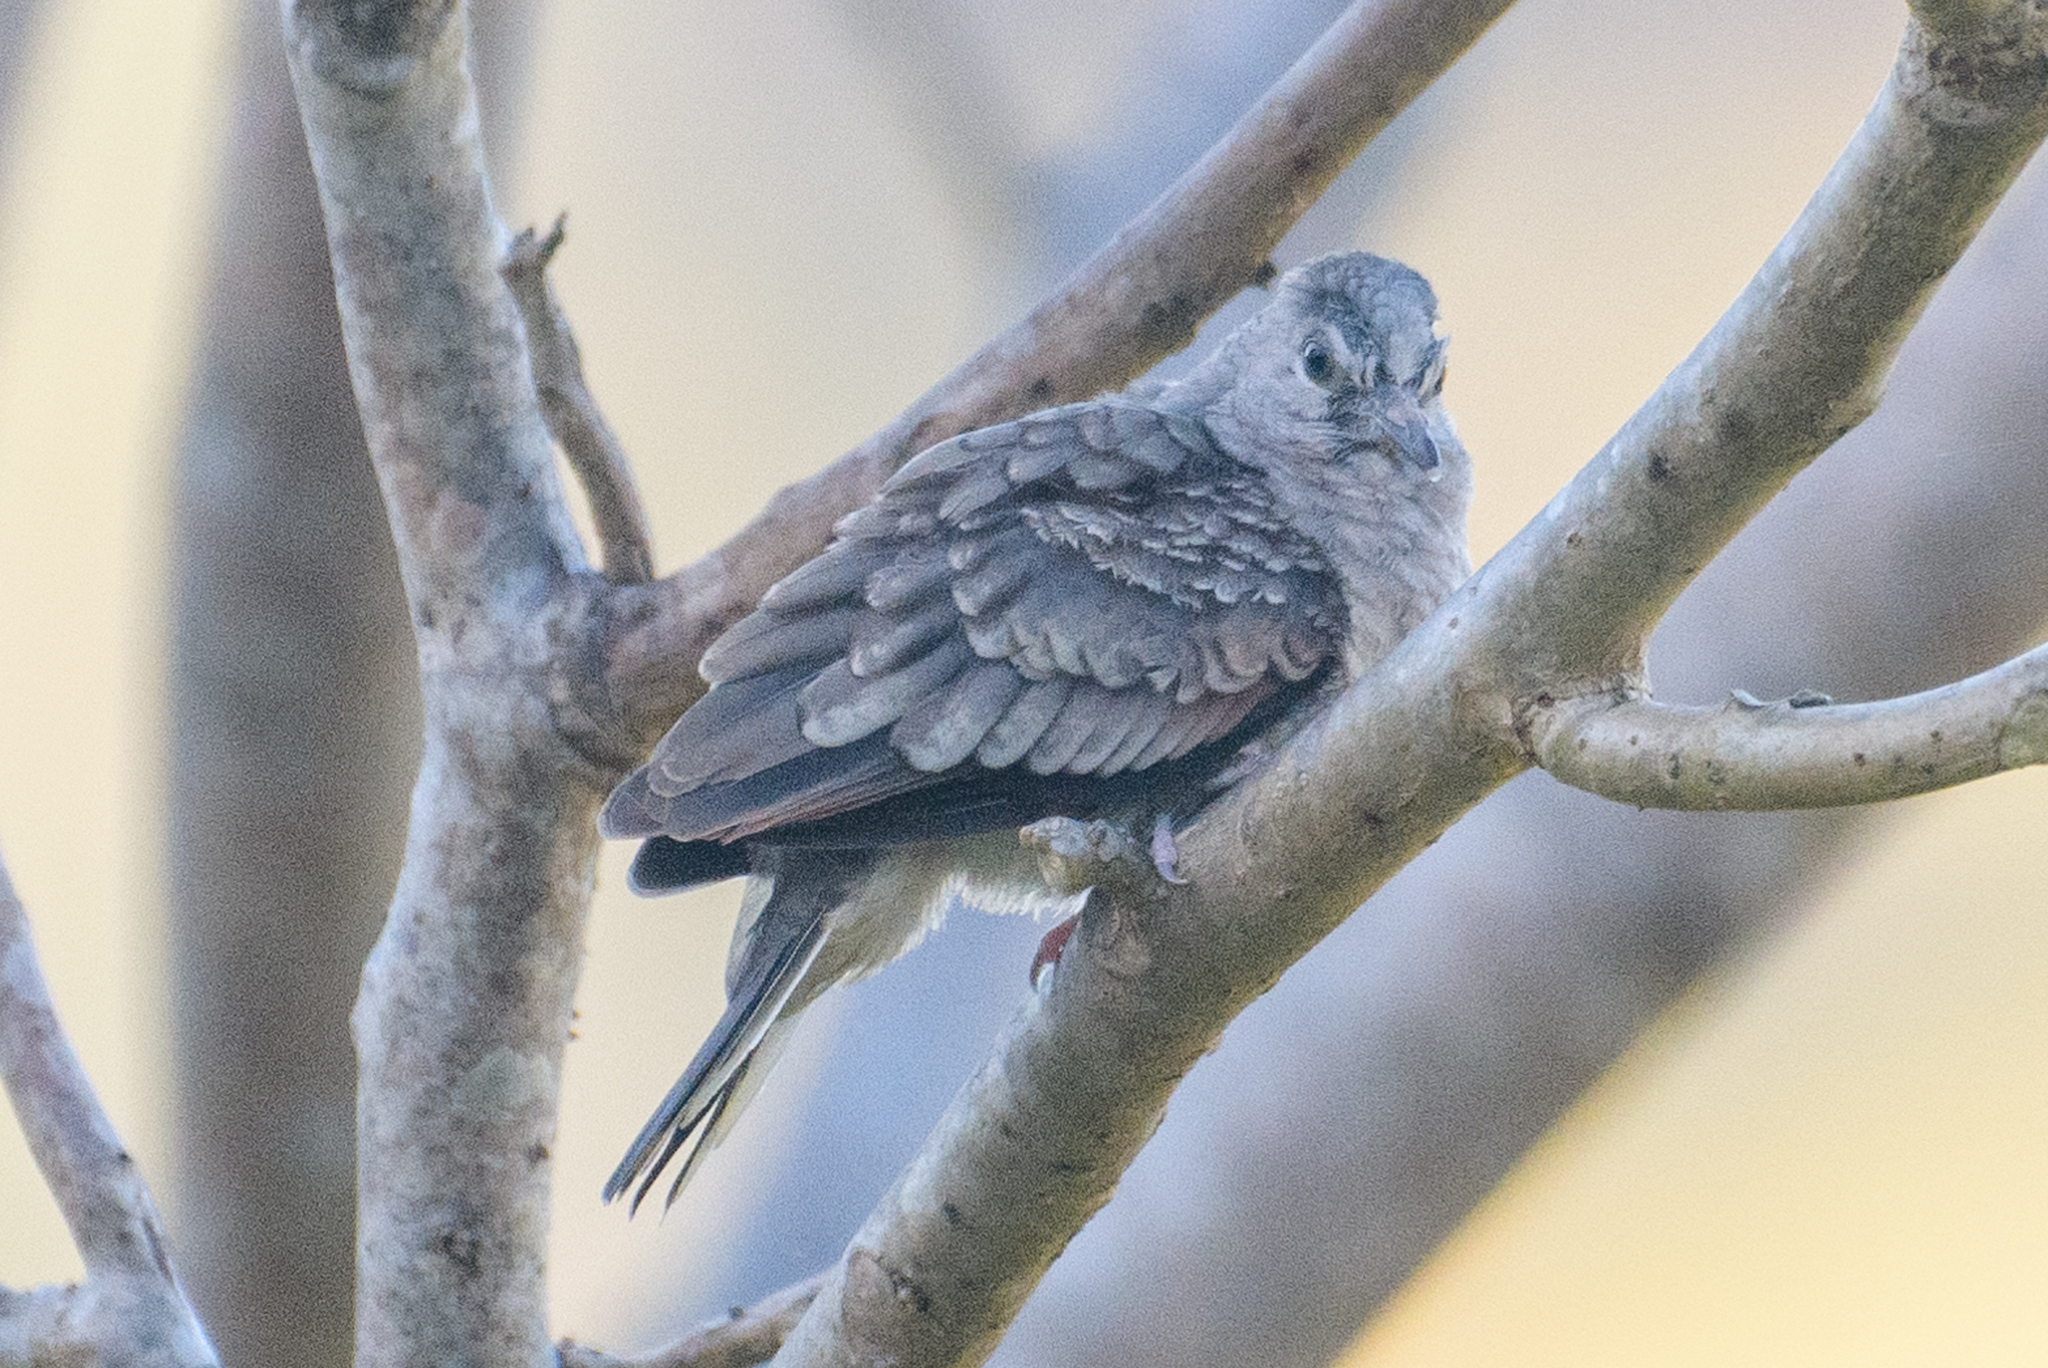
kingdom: Animalia
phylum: Chordata
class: Aves
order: Columbiformes
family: Columbidae
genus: Columbina
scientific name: Columbina inca
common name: Inca dove
